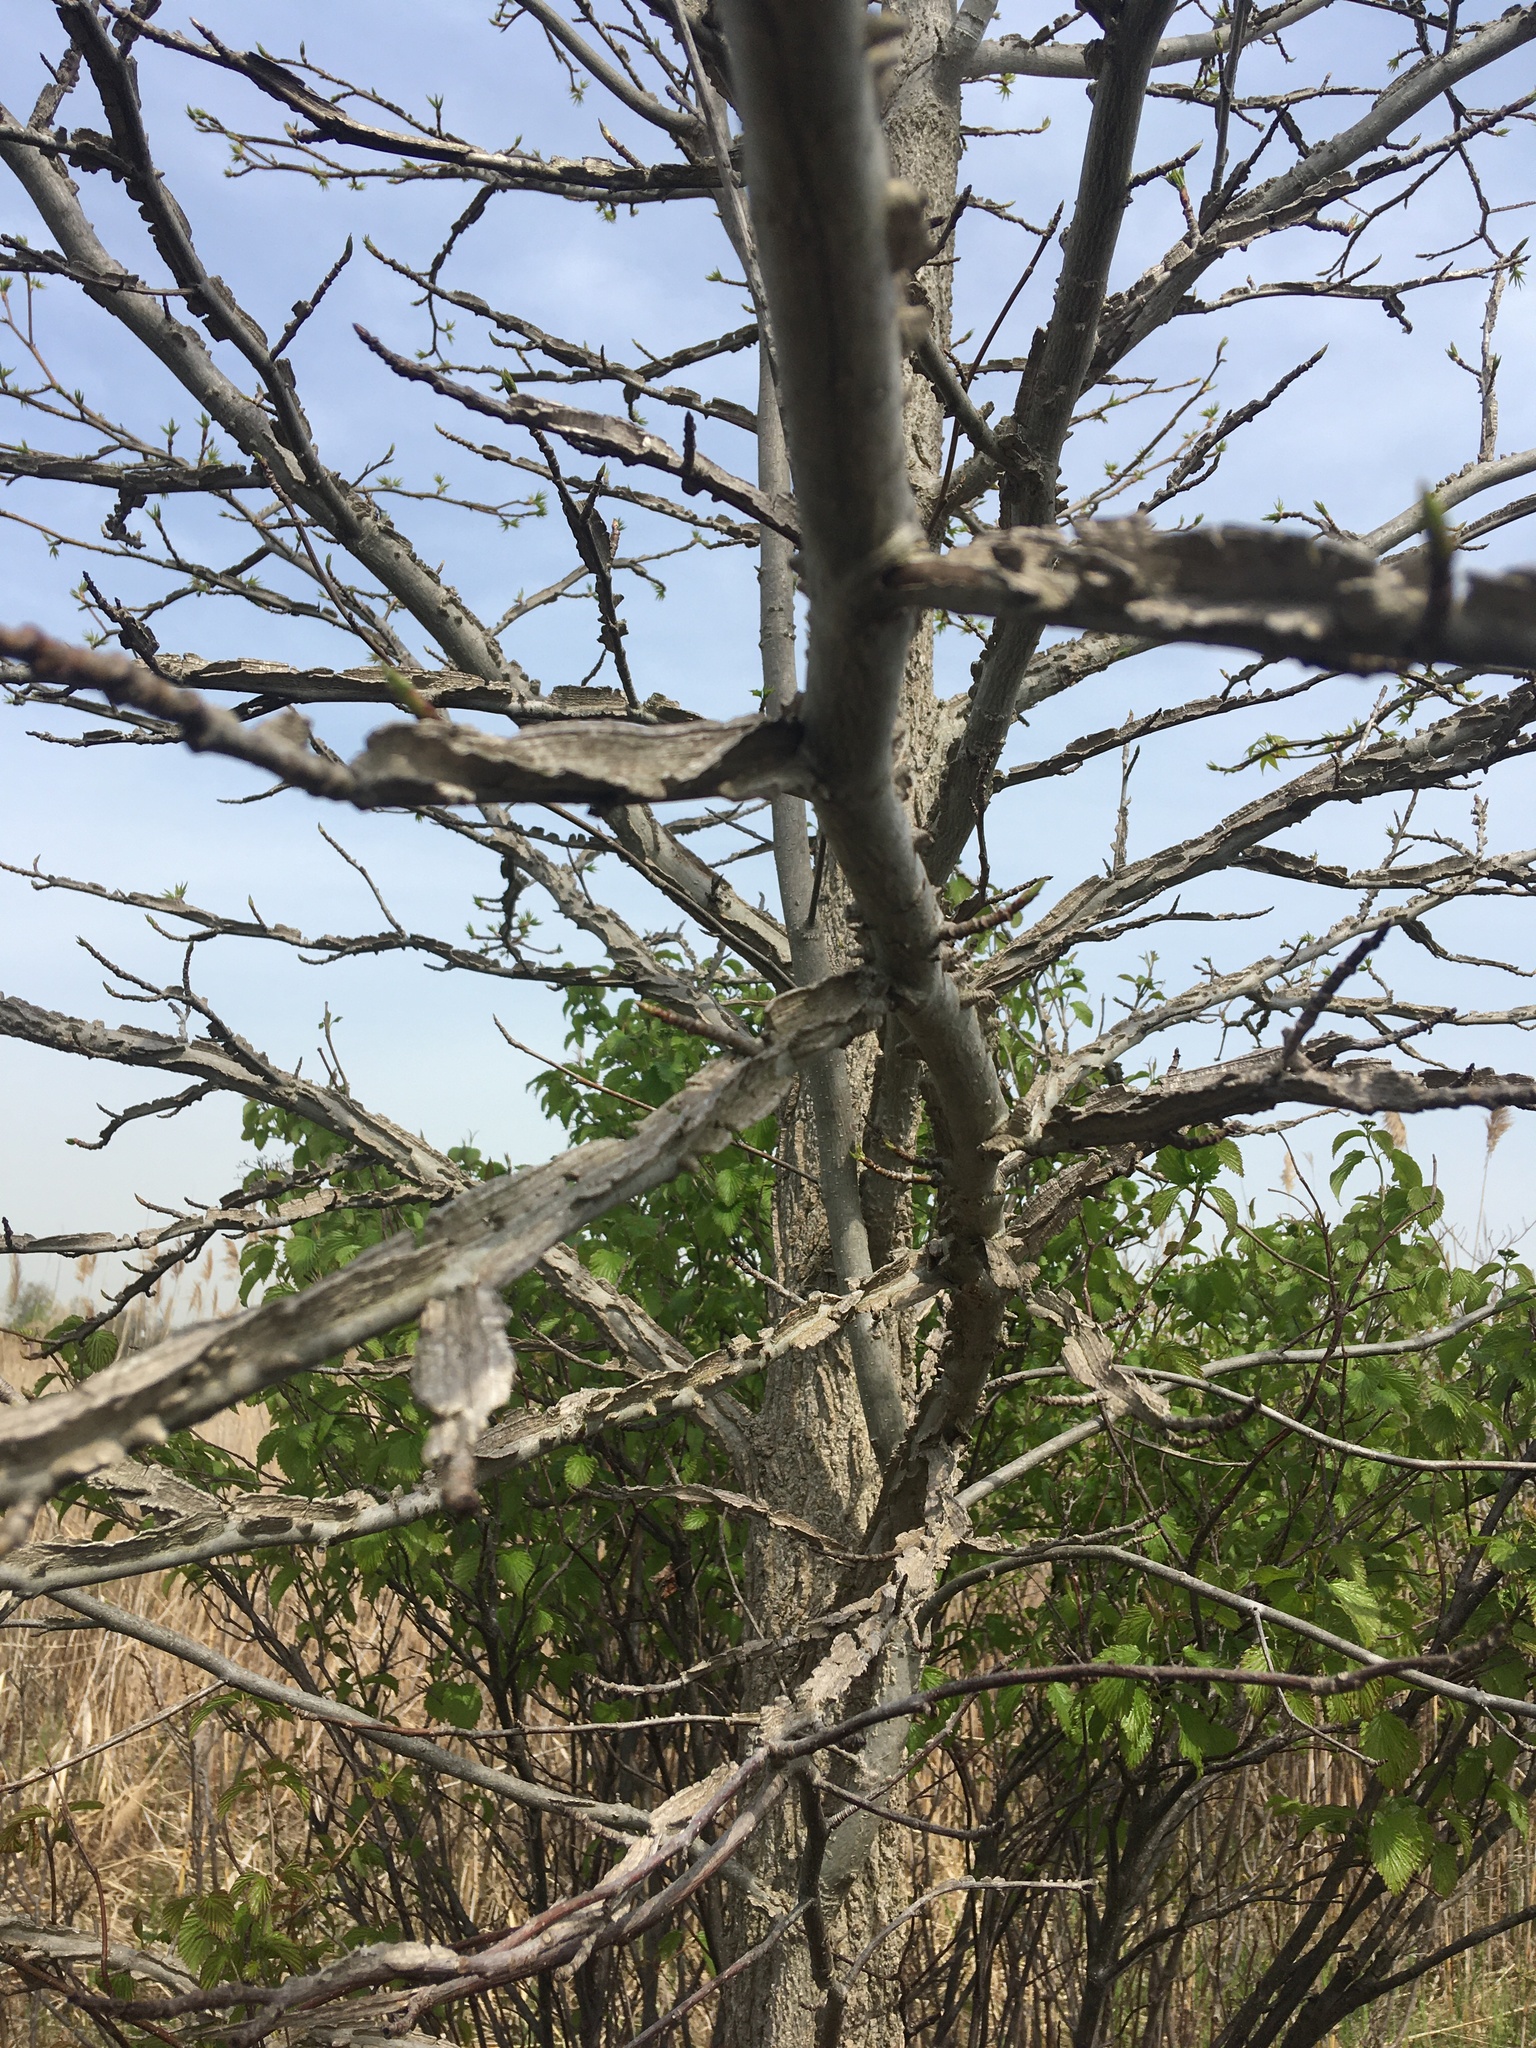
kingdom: Plantae
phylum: Tracheophyta
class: Magnoliopsida
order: Saxifragales
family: Altingiaceae
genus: Liquidambar
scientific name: Liquidambar styraciflua
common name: Sweet gum
